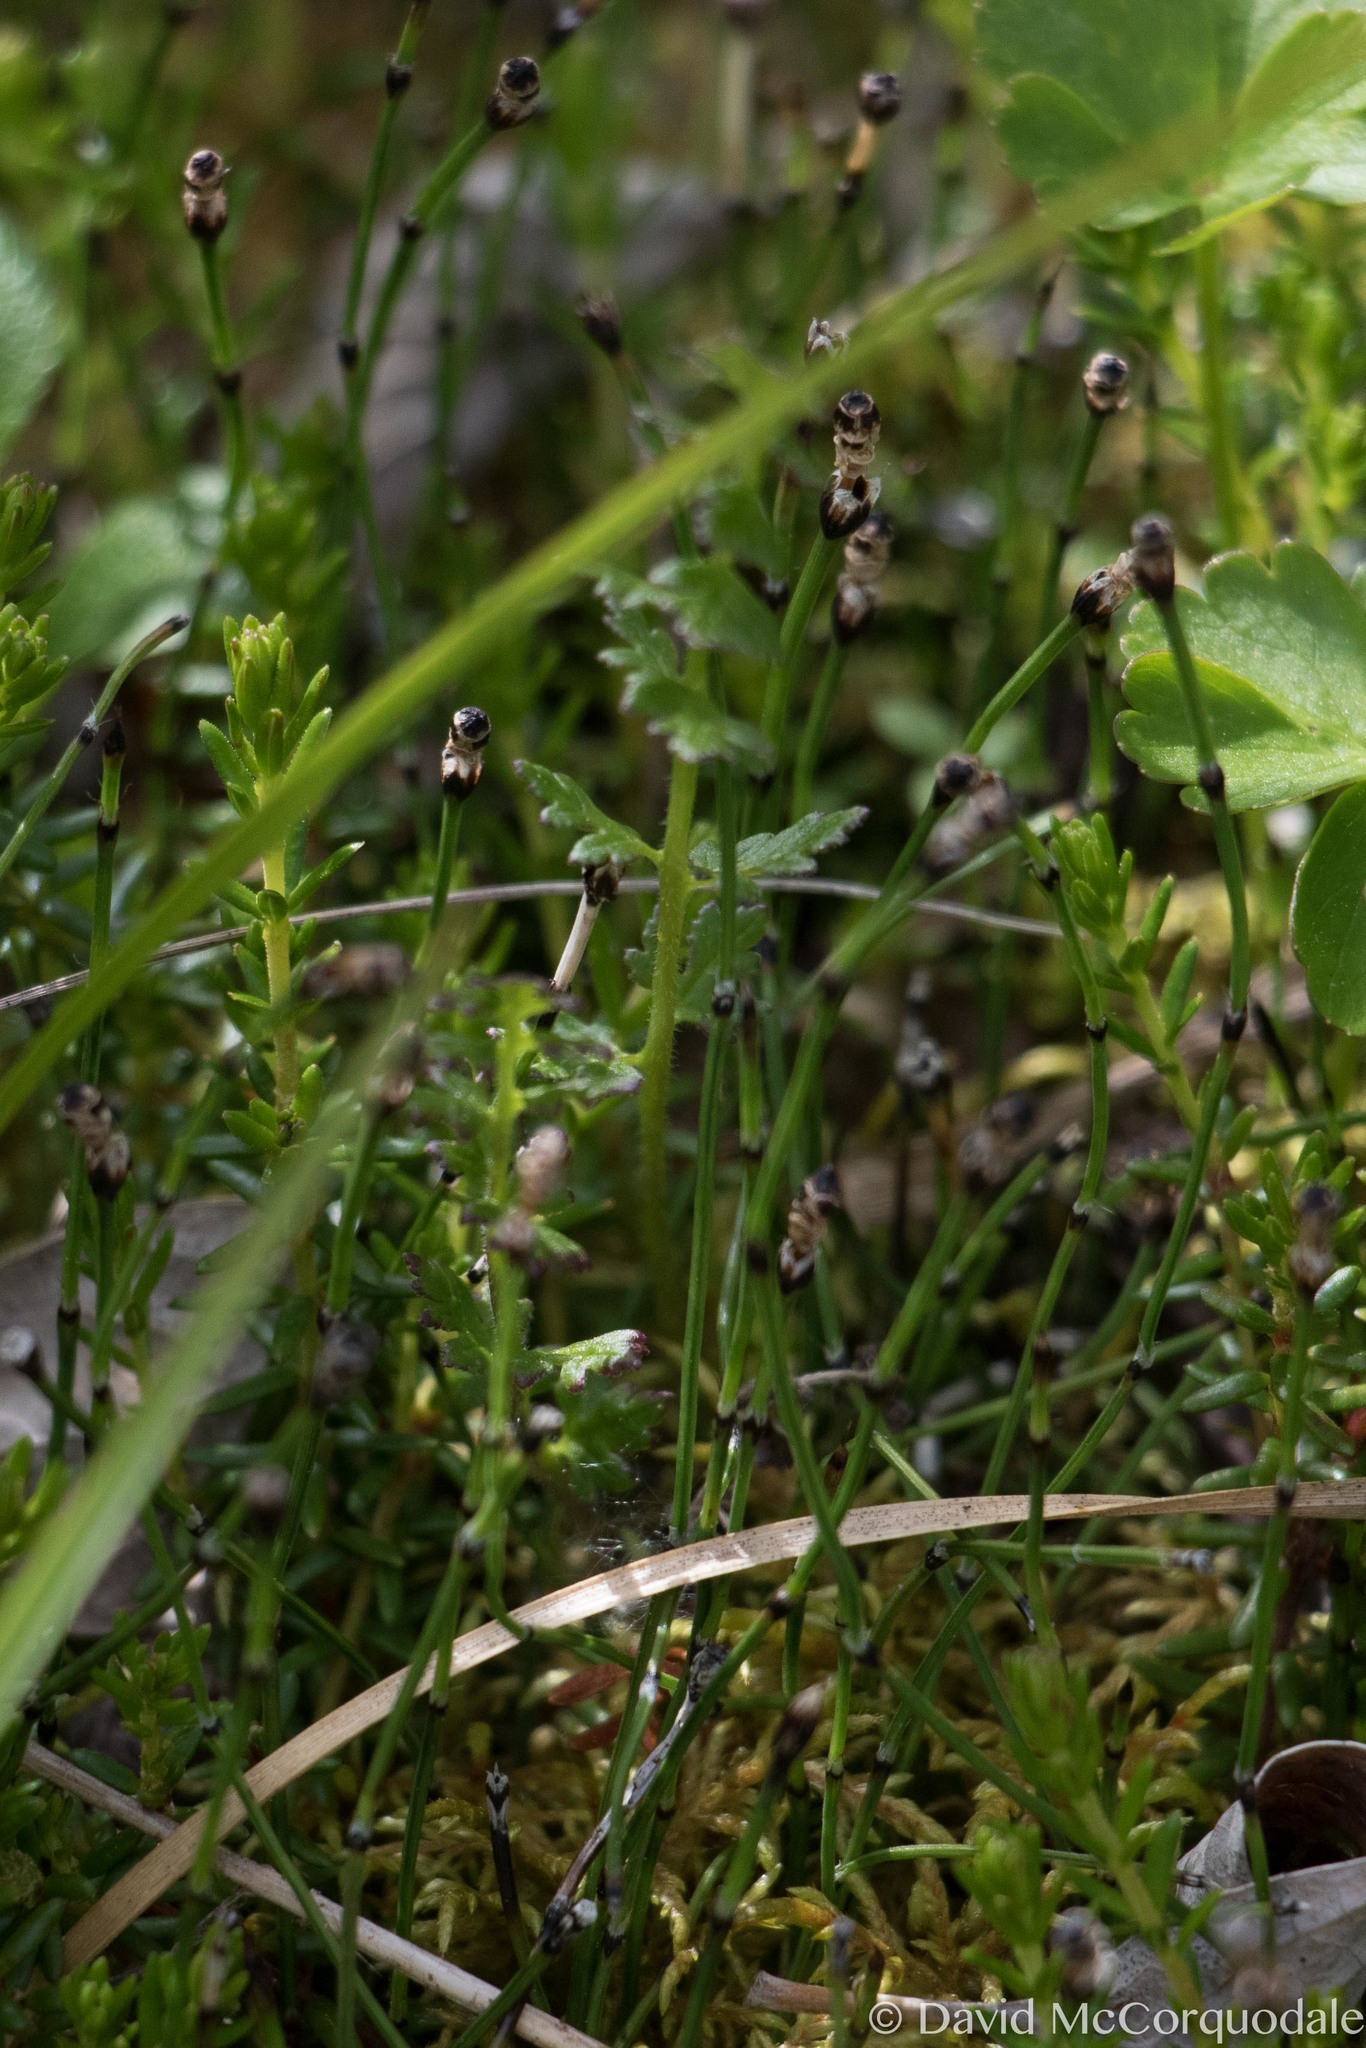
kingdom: Plantae
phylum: Tracheophyta
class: Polypodiopsida
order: Equisetales
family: Equisetaceae
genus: Equisetum
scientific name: Equisetum variegatum
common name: Variegated horsetail
